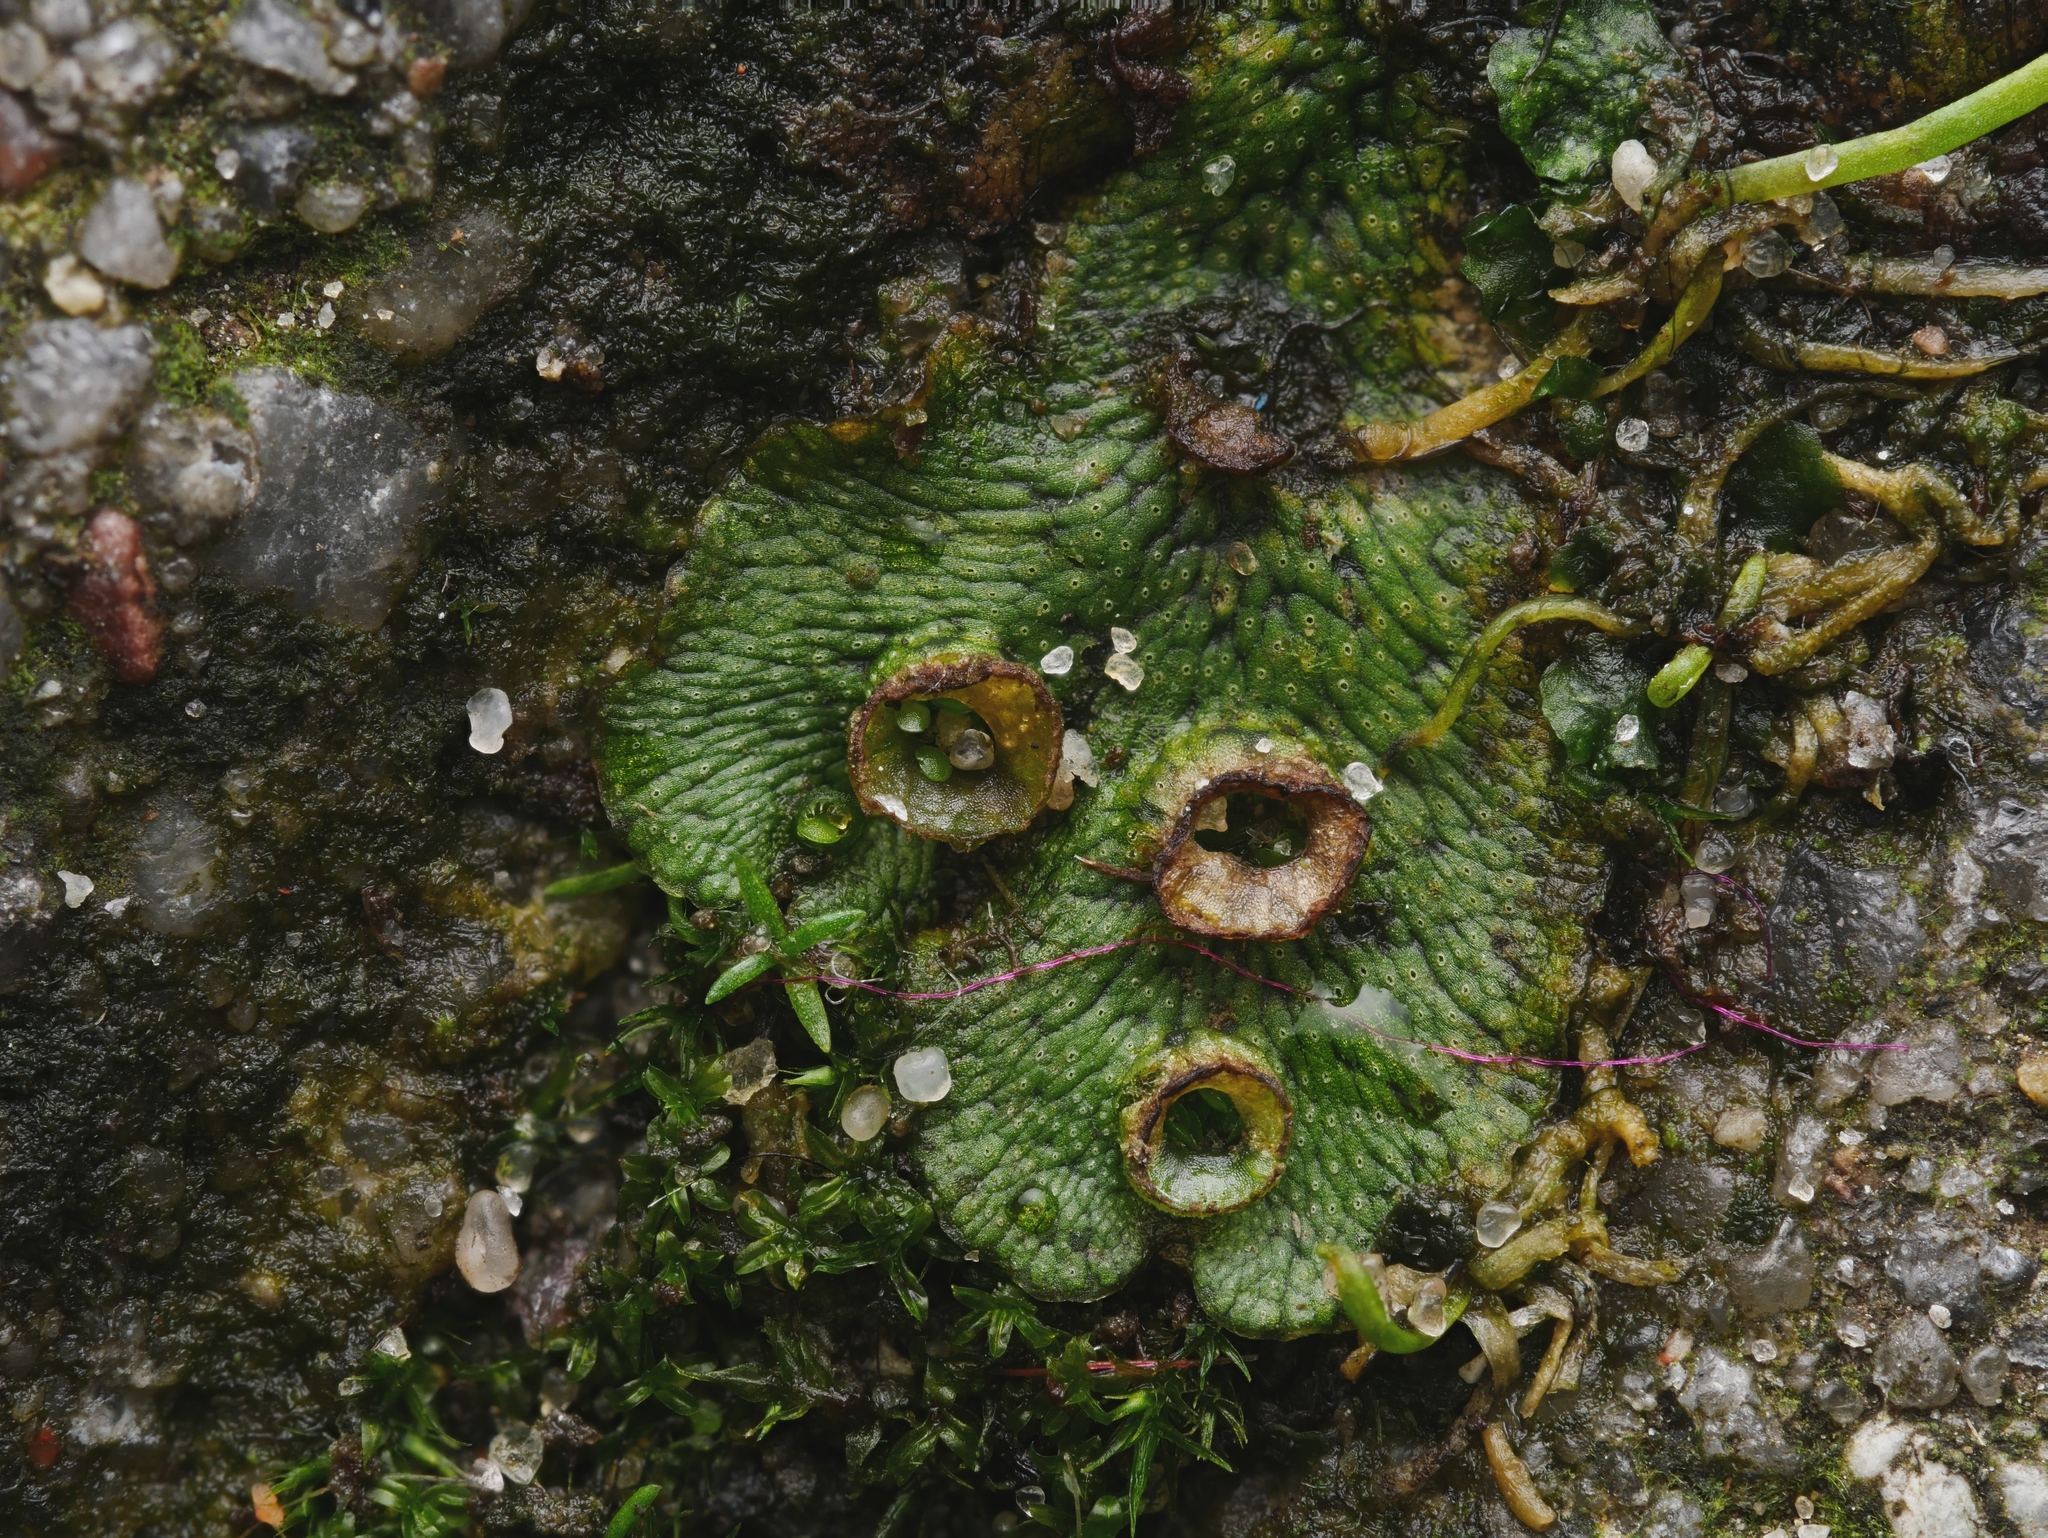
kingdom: Plantae
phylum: Marchantiophyta
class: Marchantiopsida
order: Marchantiales
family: Marchantiaceae
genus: Marchantia
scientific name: Marchantia polymorpha
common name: Common liverwort
